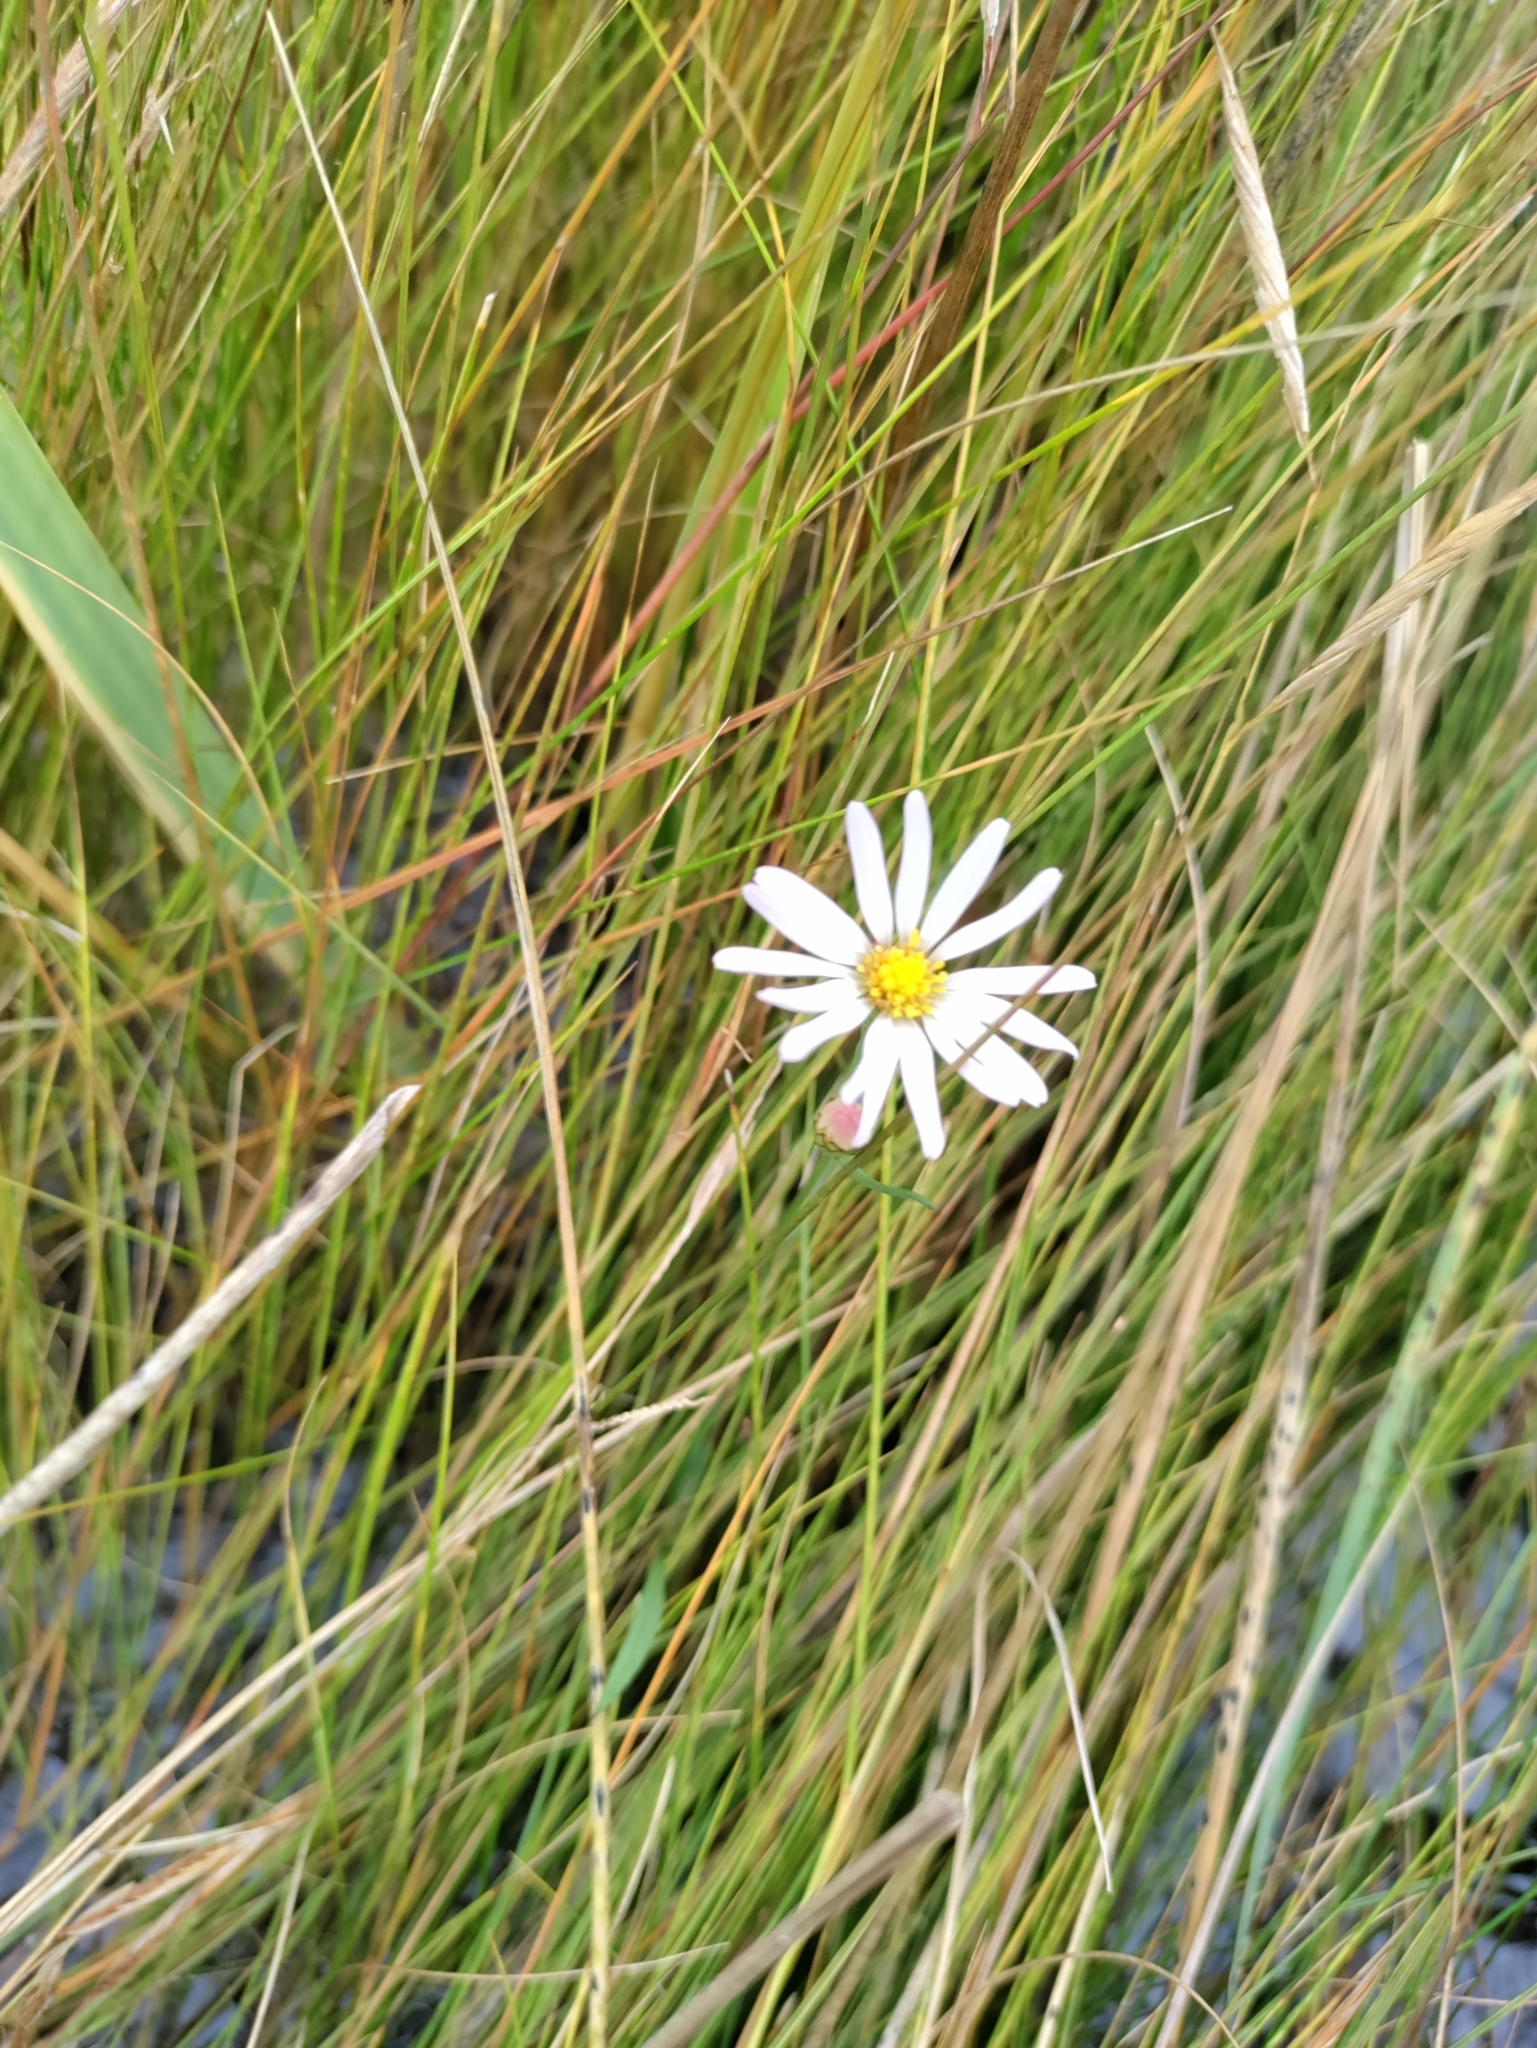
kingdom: Plantae
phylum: Tracheophyta
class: Magnoliopsida
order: Asterales
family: Asteraceae
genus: Symphyotrichum
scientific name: Symphyotrichum tenuifolium
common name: Perennial salt-marsh aster
